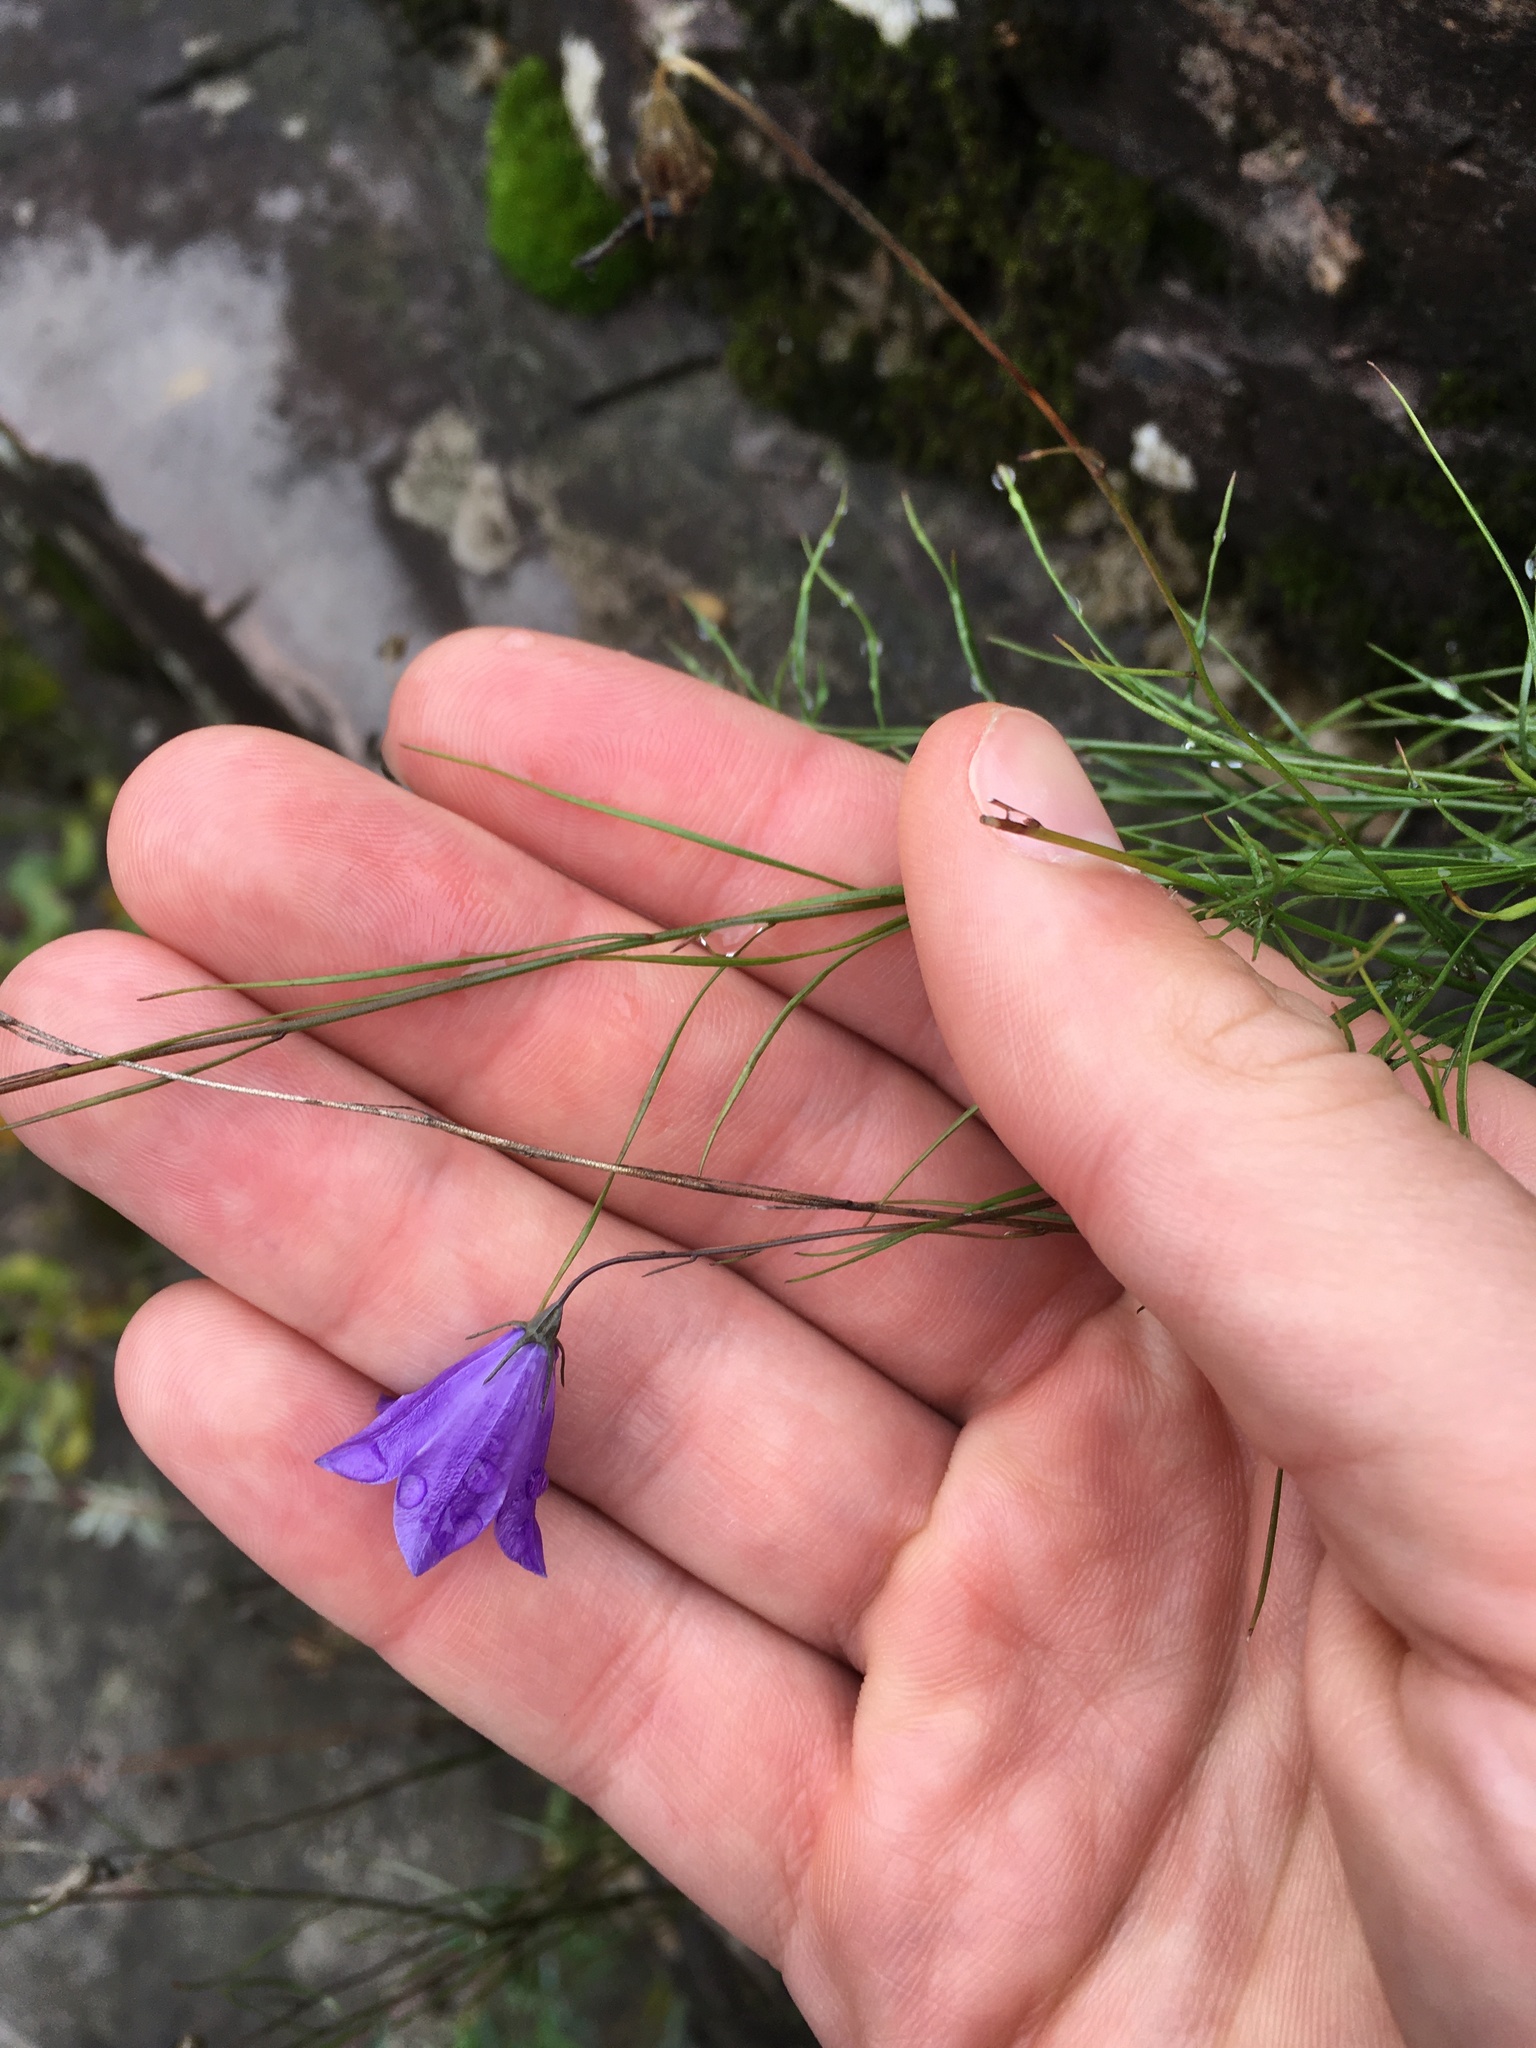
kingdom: Plantae
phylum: Tracheophyta
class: Magnoliopsida
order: Asterales
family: Campanulaceae
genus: Campanula
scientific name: Campanula intercedens
